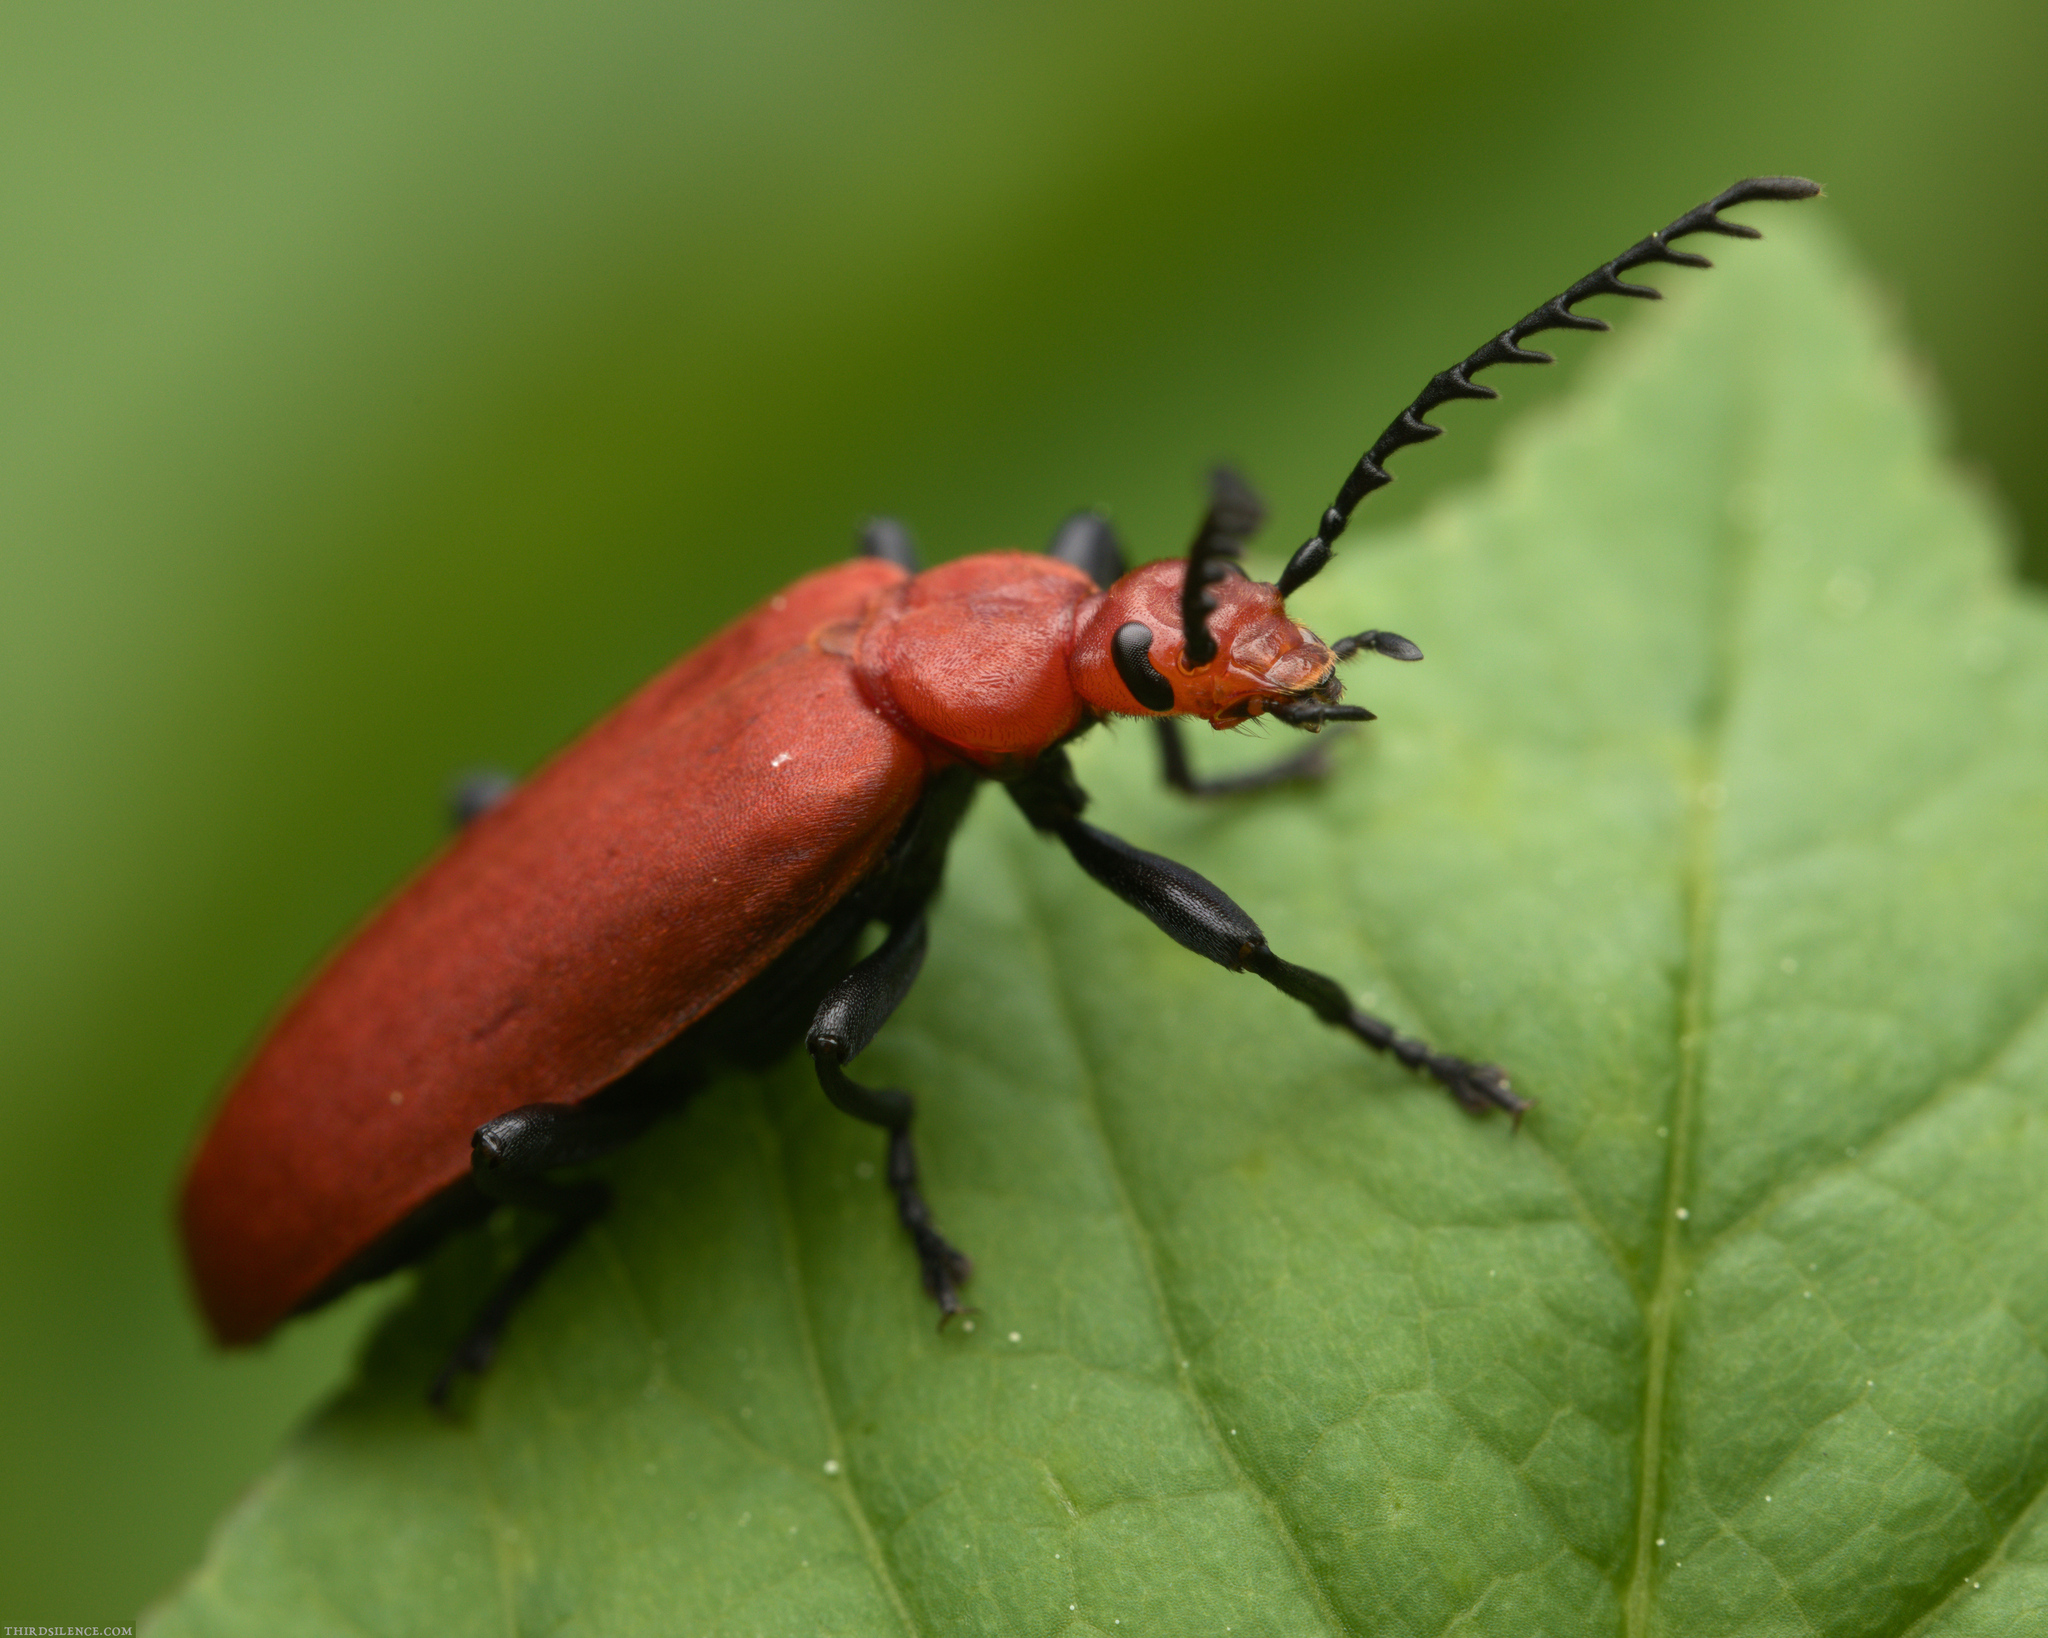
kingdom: Animalia
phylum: Arthropoda
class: Insecta
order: Coleoptera
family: Pyrochroidae
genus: Pyrochroa
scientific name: Pyrochroa serraticornis
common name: Red-headed cardinal beetle
